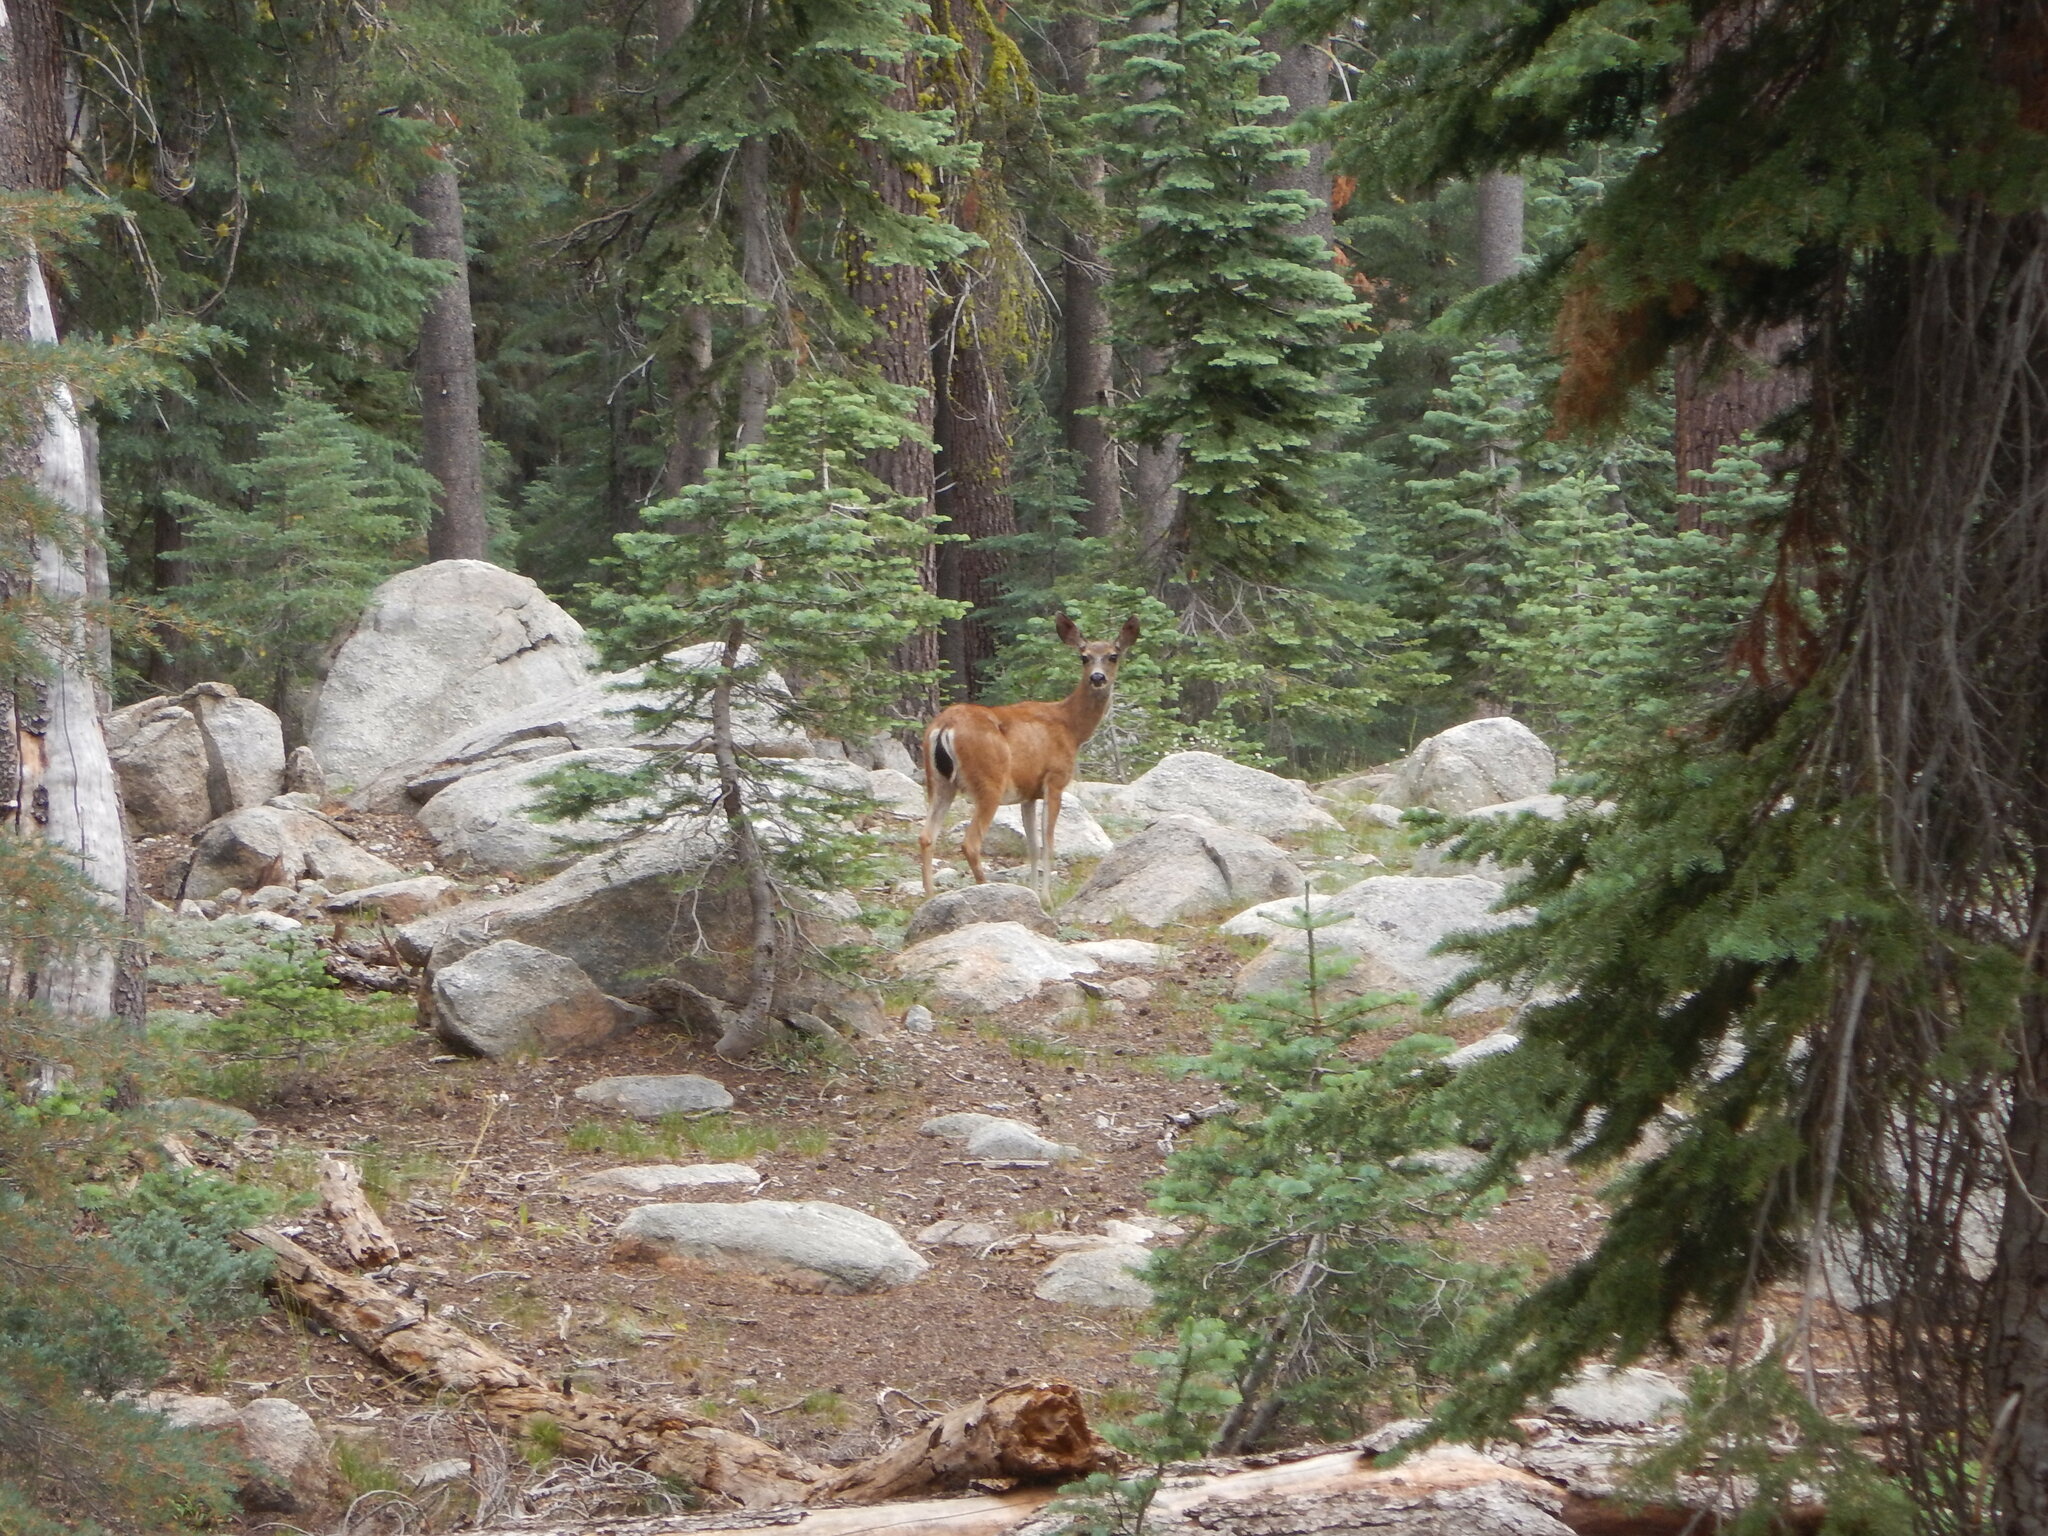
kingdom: Animalia
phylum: Chordata
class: Mammalia
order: Artiodactyla
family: Cervidae
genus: Odocoileus
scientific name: Odocoileus hemionus
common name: Mule deer
